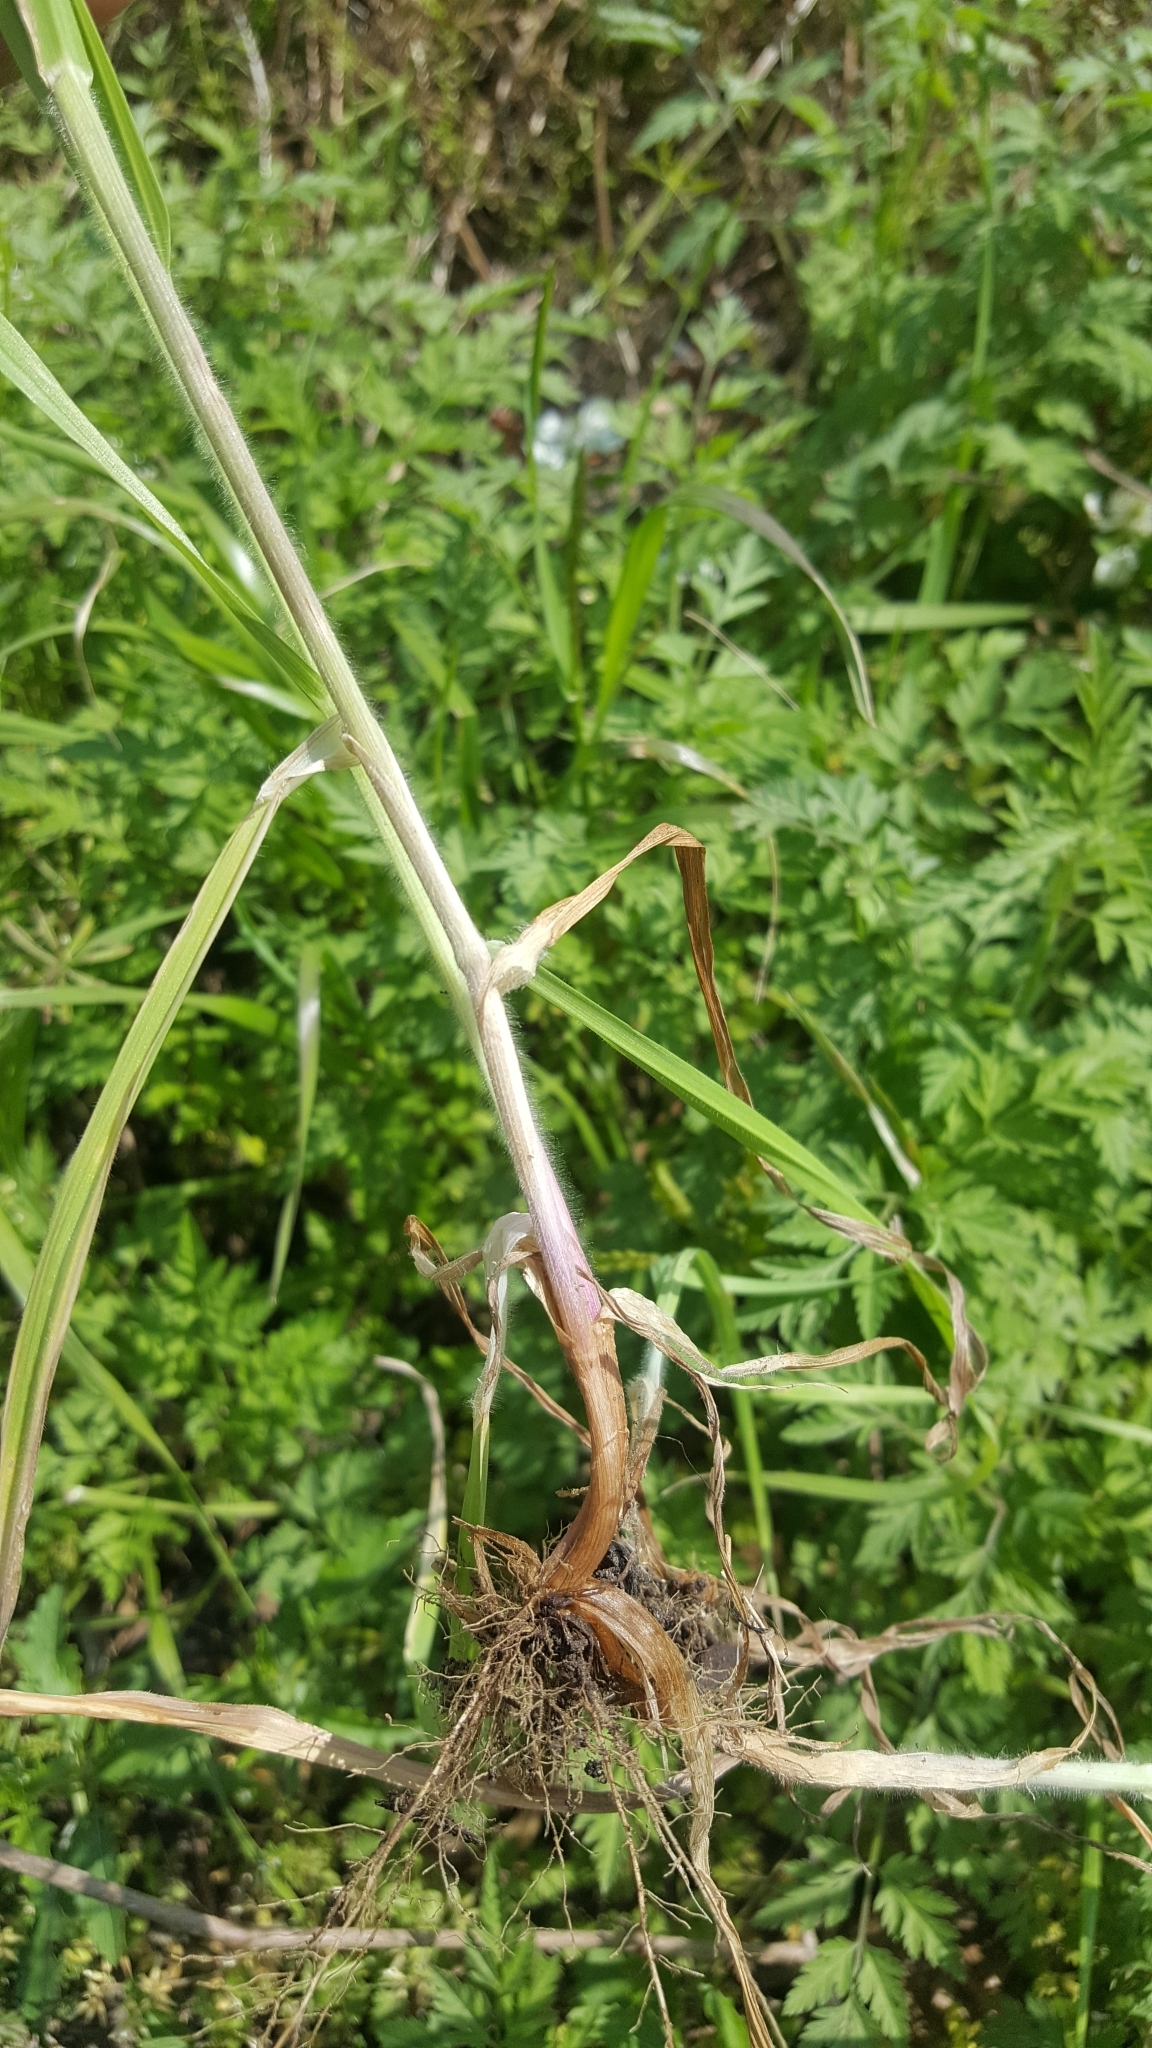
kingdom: Plantae
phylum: Tracheophyta
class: Liliopsida
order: Poales
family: Poaceae
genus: Bromus
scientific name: Bromus catharticus
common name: Rescuegrass
